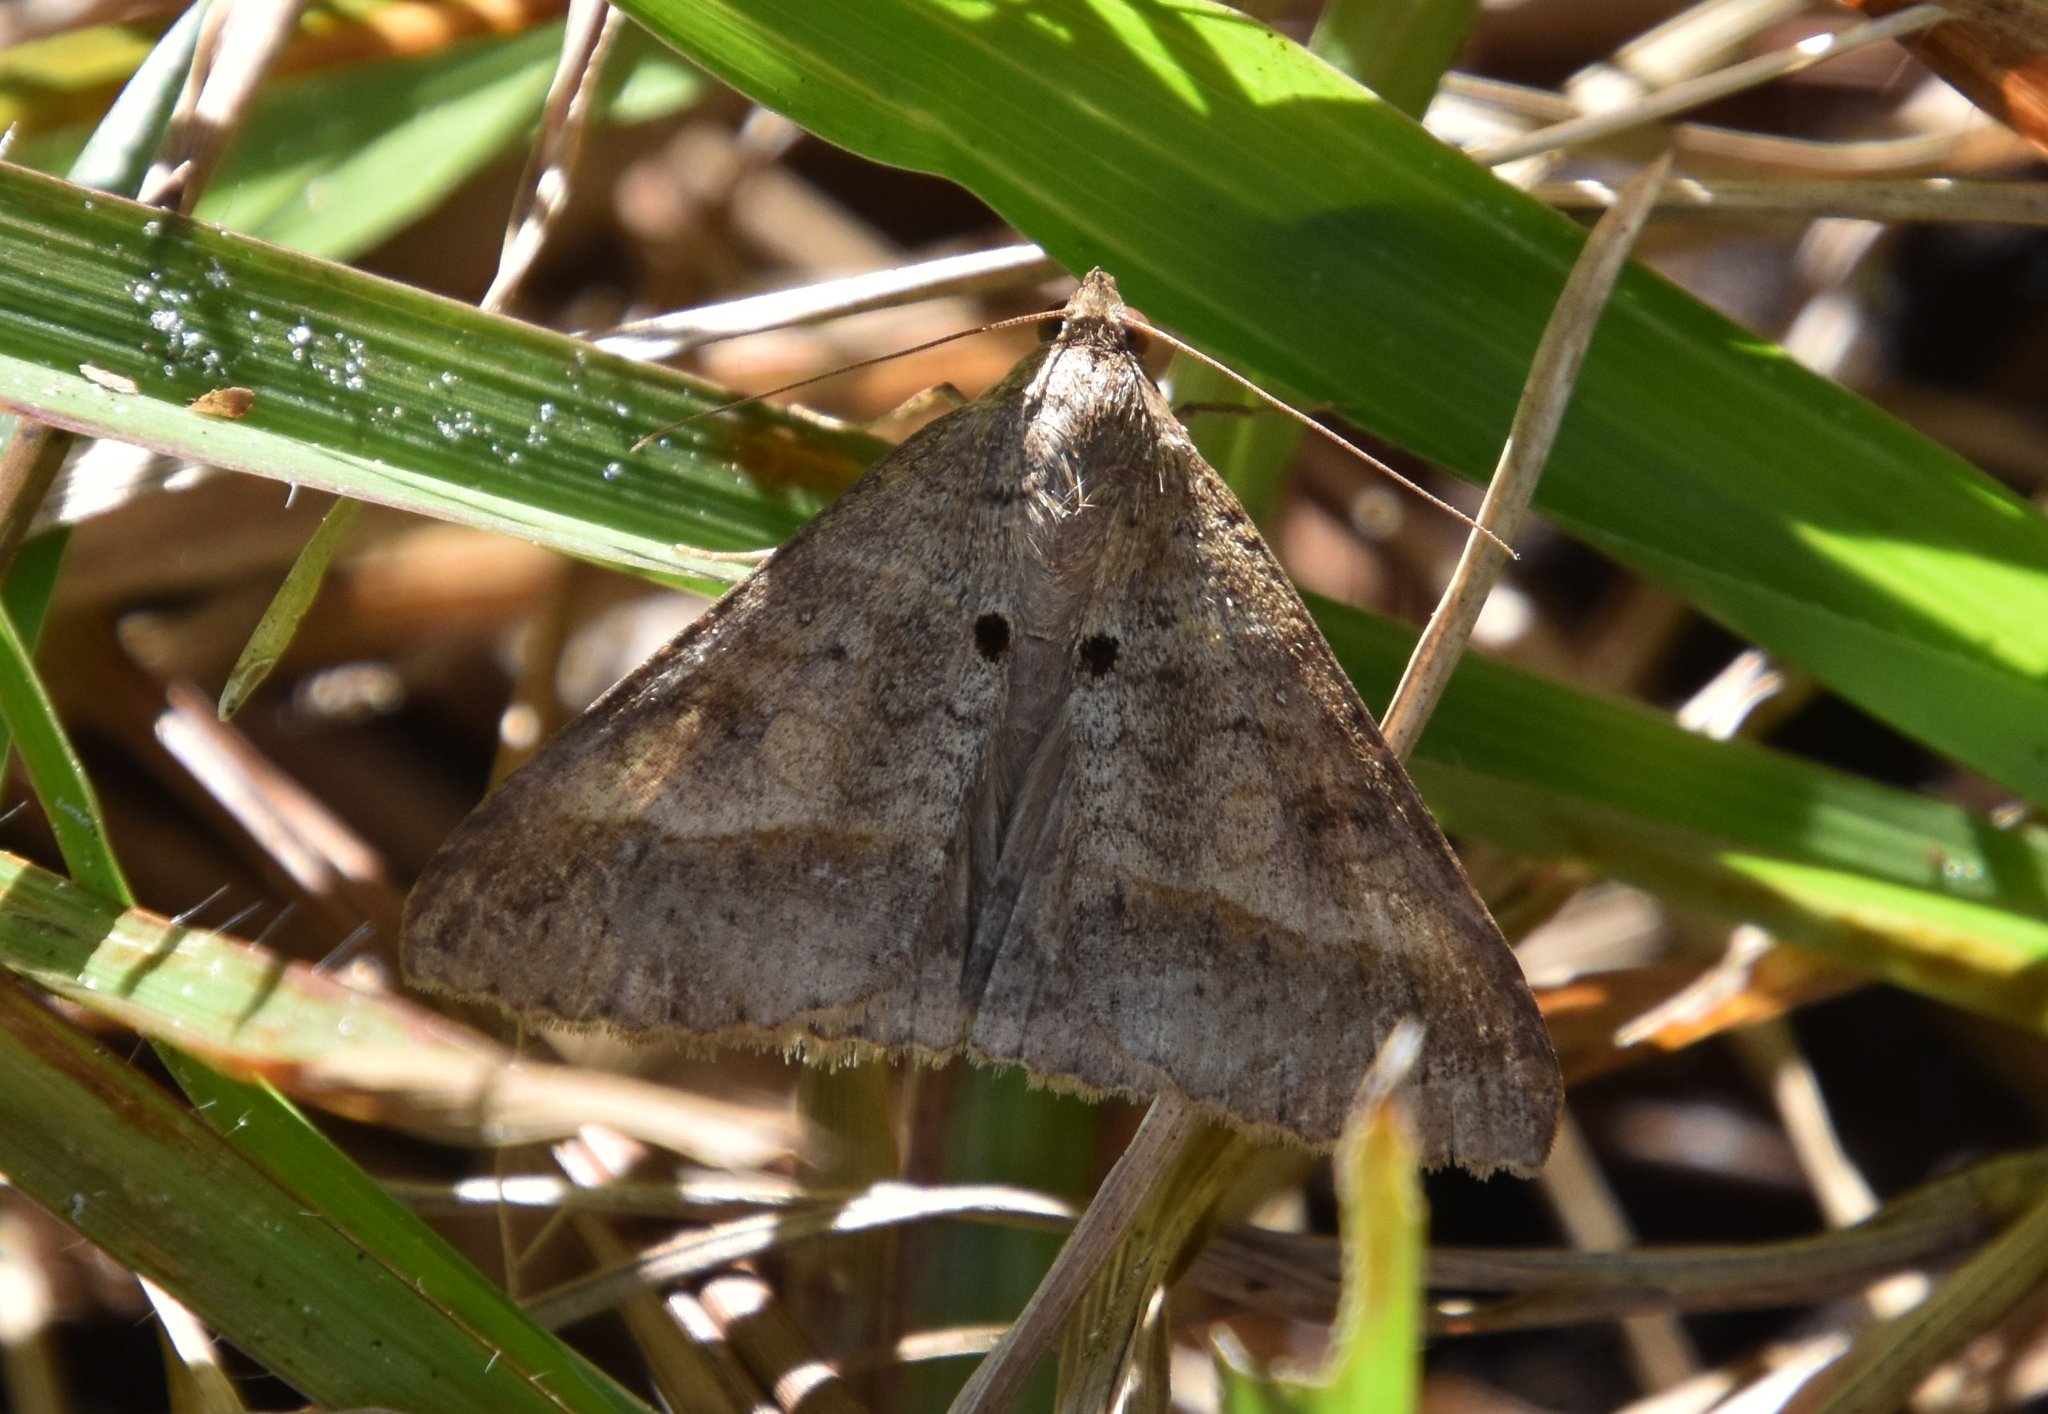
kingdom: Animalia
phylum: Arthropoda
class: Insecta
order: Lepidoptera
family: Erebidae
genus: Mocis
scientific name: Mocis latipes
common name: Striped grass looper
